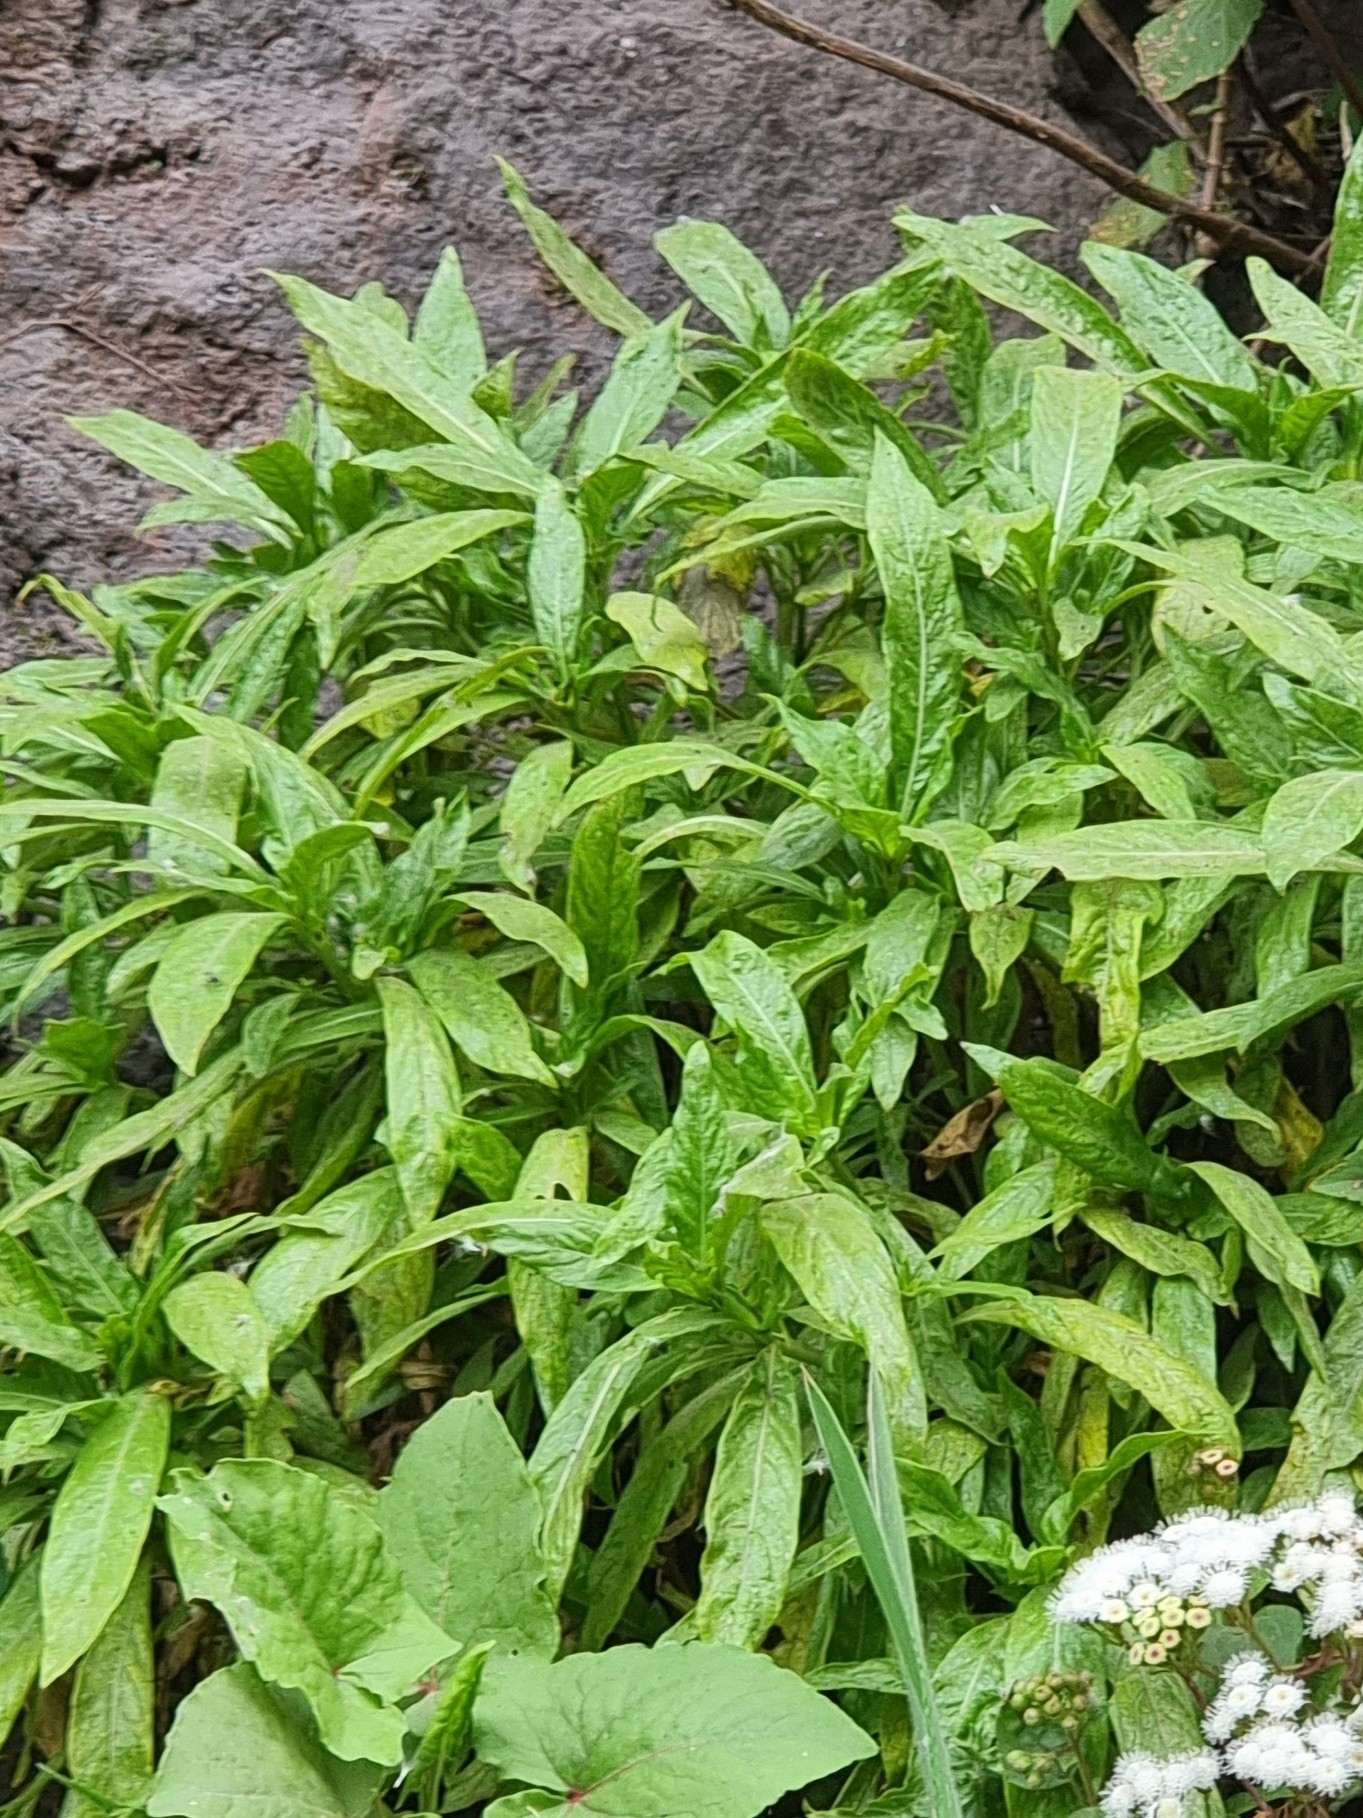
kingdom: Plantae
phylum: Tracheophyta
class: Magnoliopsida
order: Gentianales
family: Rubiaceae
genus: Phyllis
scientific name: Phyllis nobla
